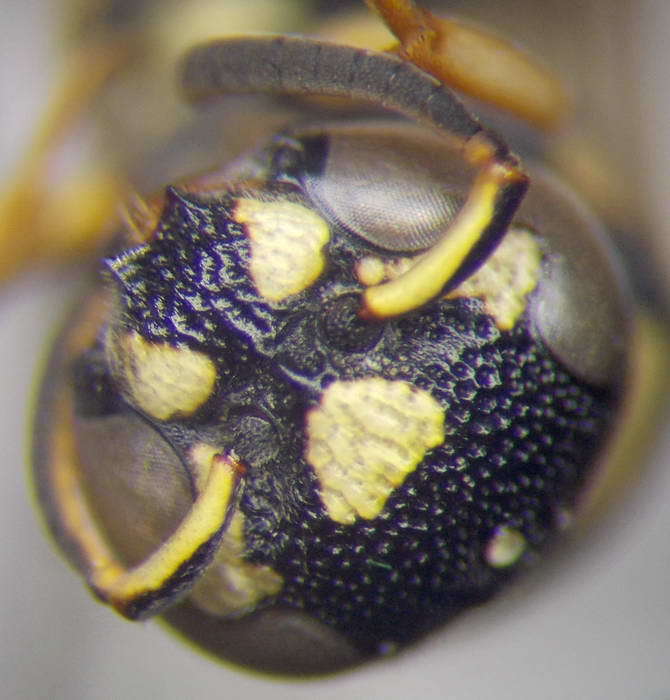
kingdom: Animalia
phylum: Arthropoda
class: Insecta
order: Hymenoptera
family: Eumenidae
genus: Eustenancistrocerus
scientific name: Eustenancistrocerus amadanensis
